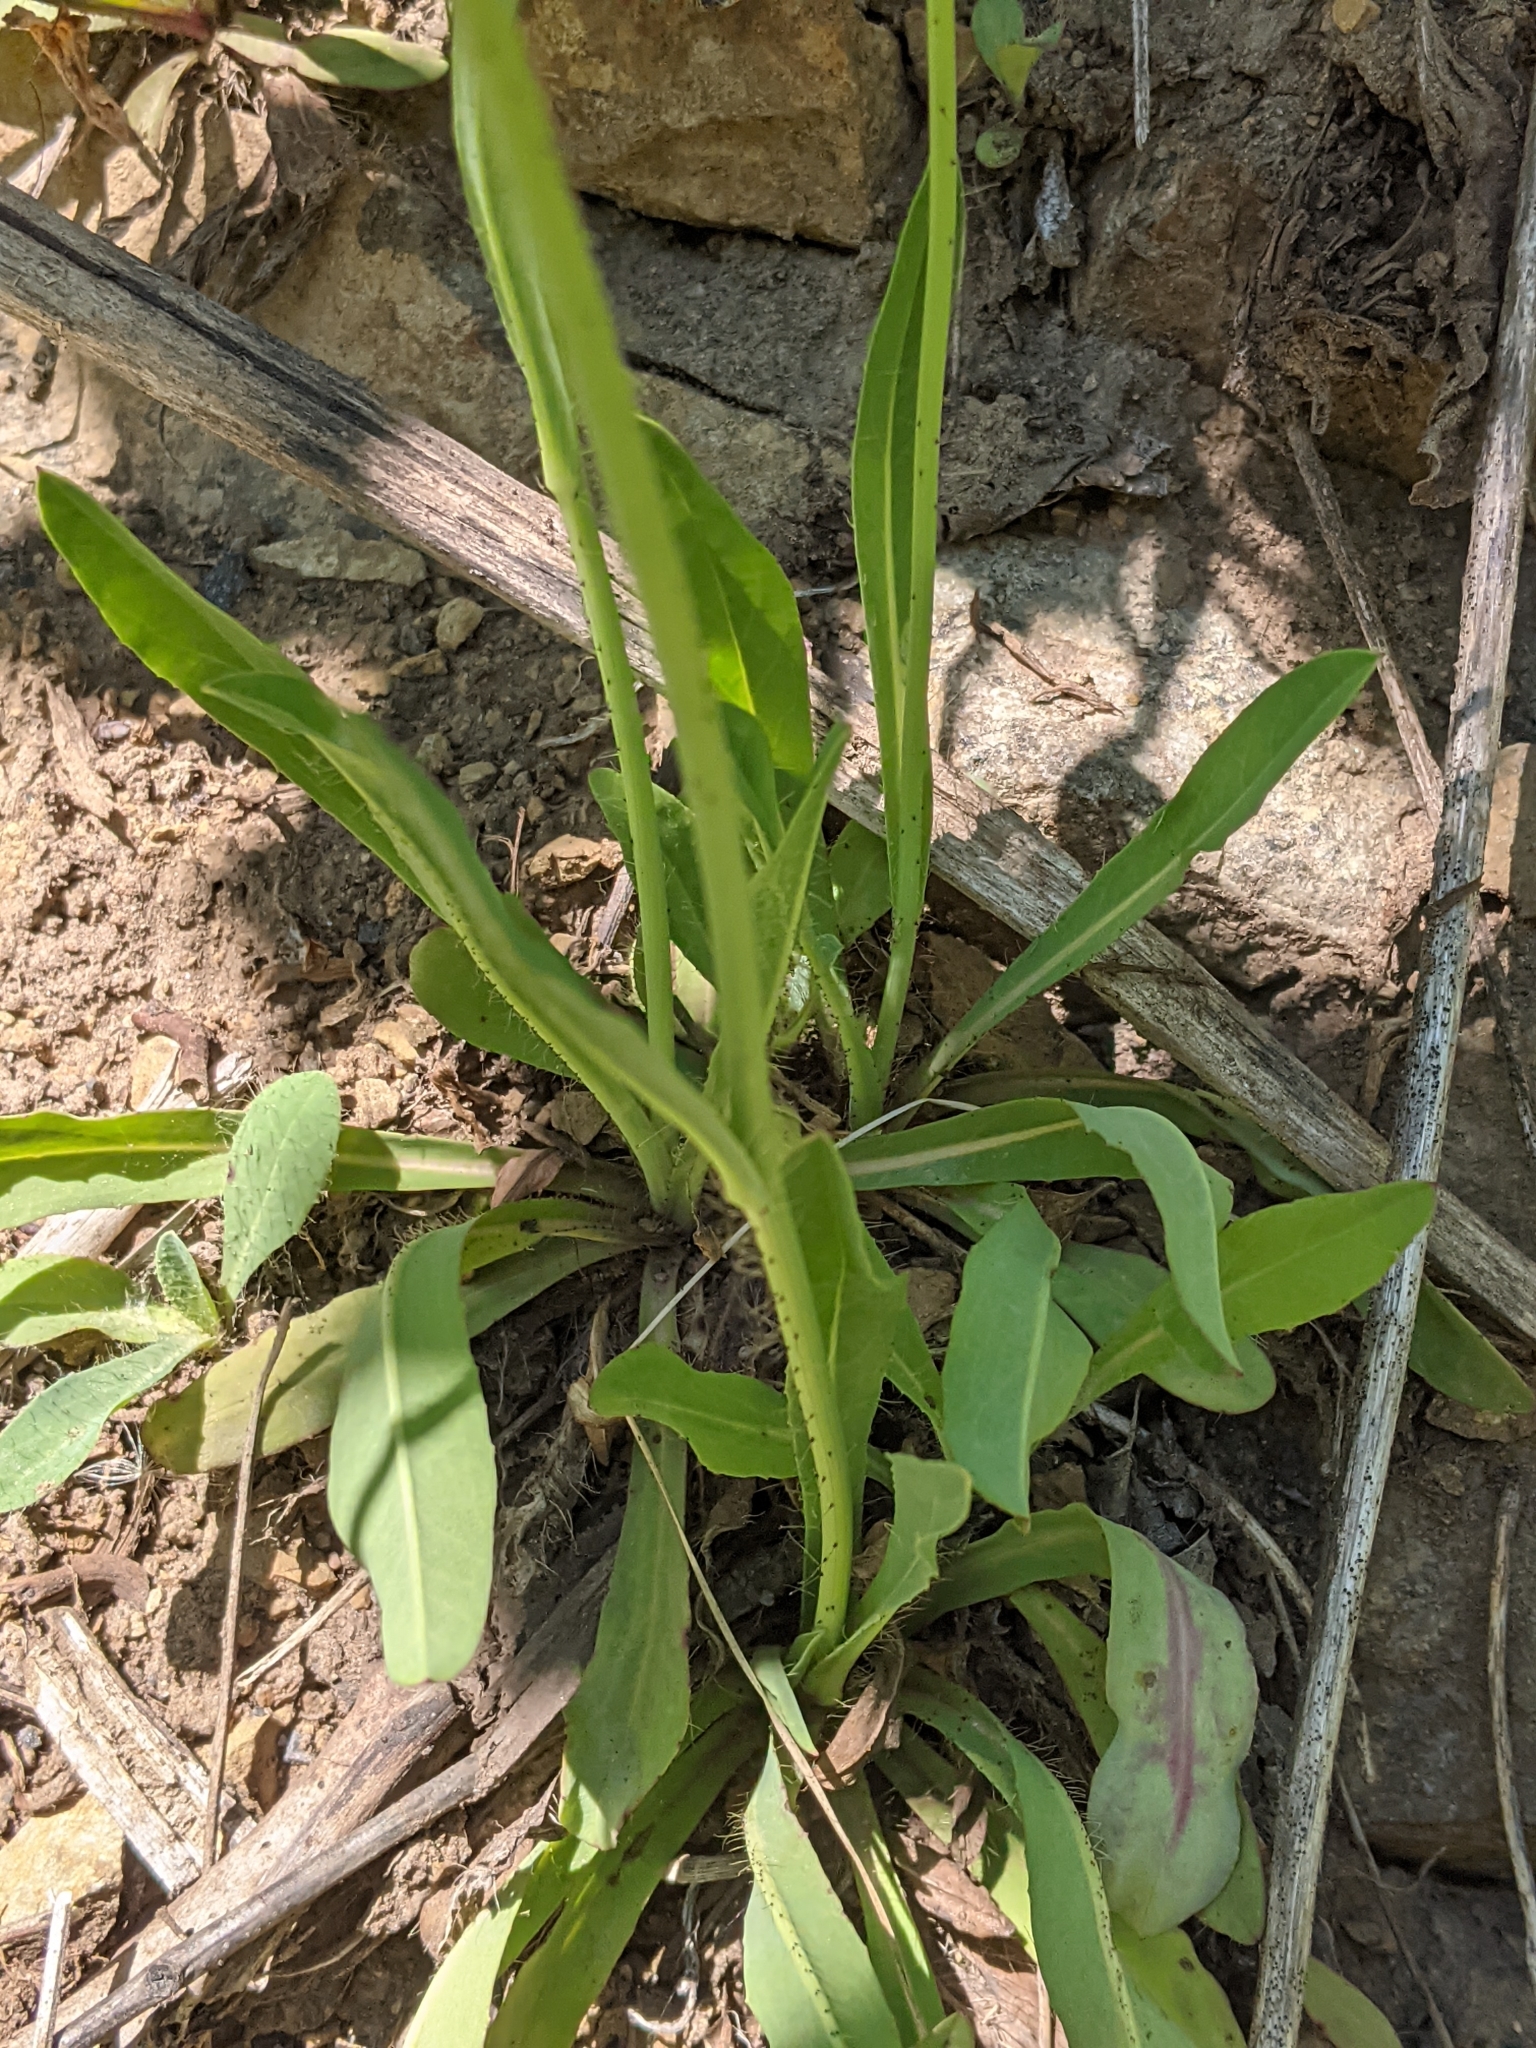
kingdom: Plantae
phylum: Tracheophyta
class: Magnoliopsida
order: Asterales
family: Asteraceae
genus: Pilosella
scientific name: Pilosella caespitosa
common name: Yellow fox-and-cubs
